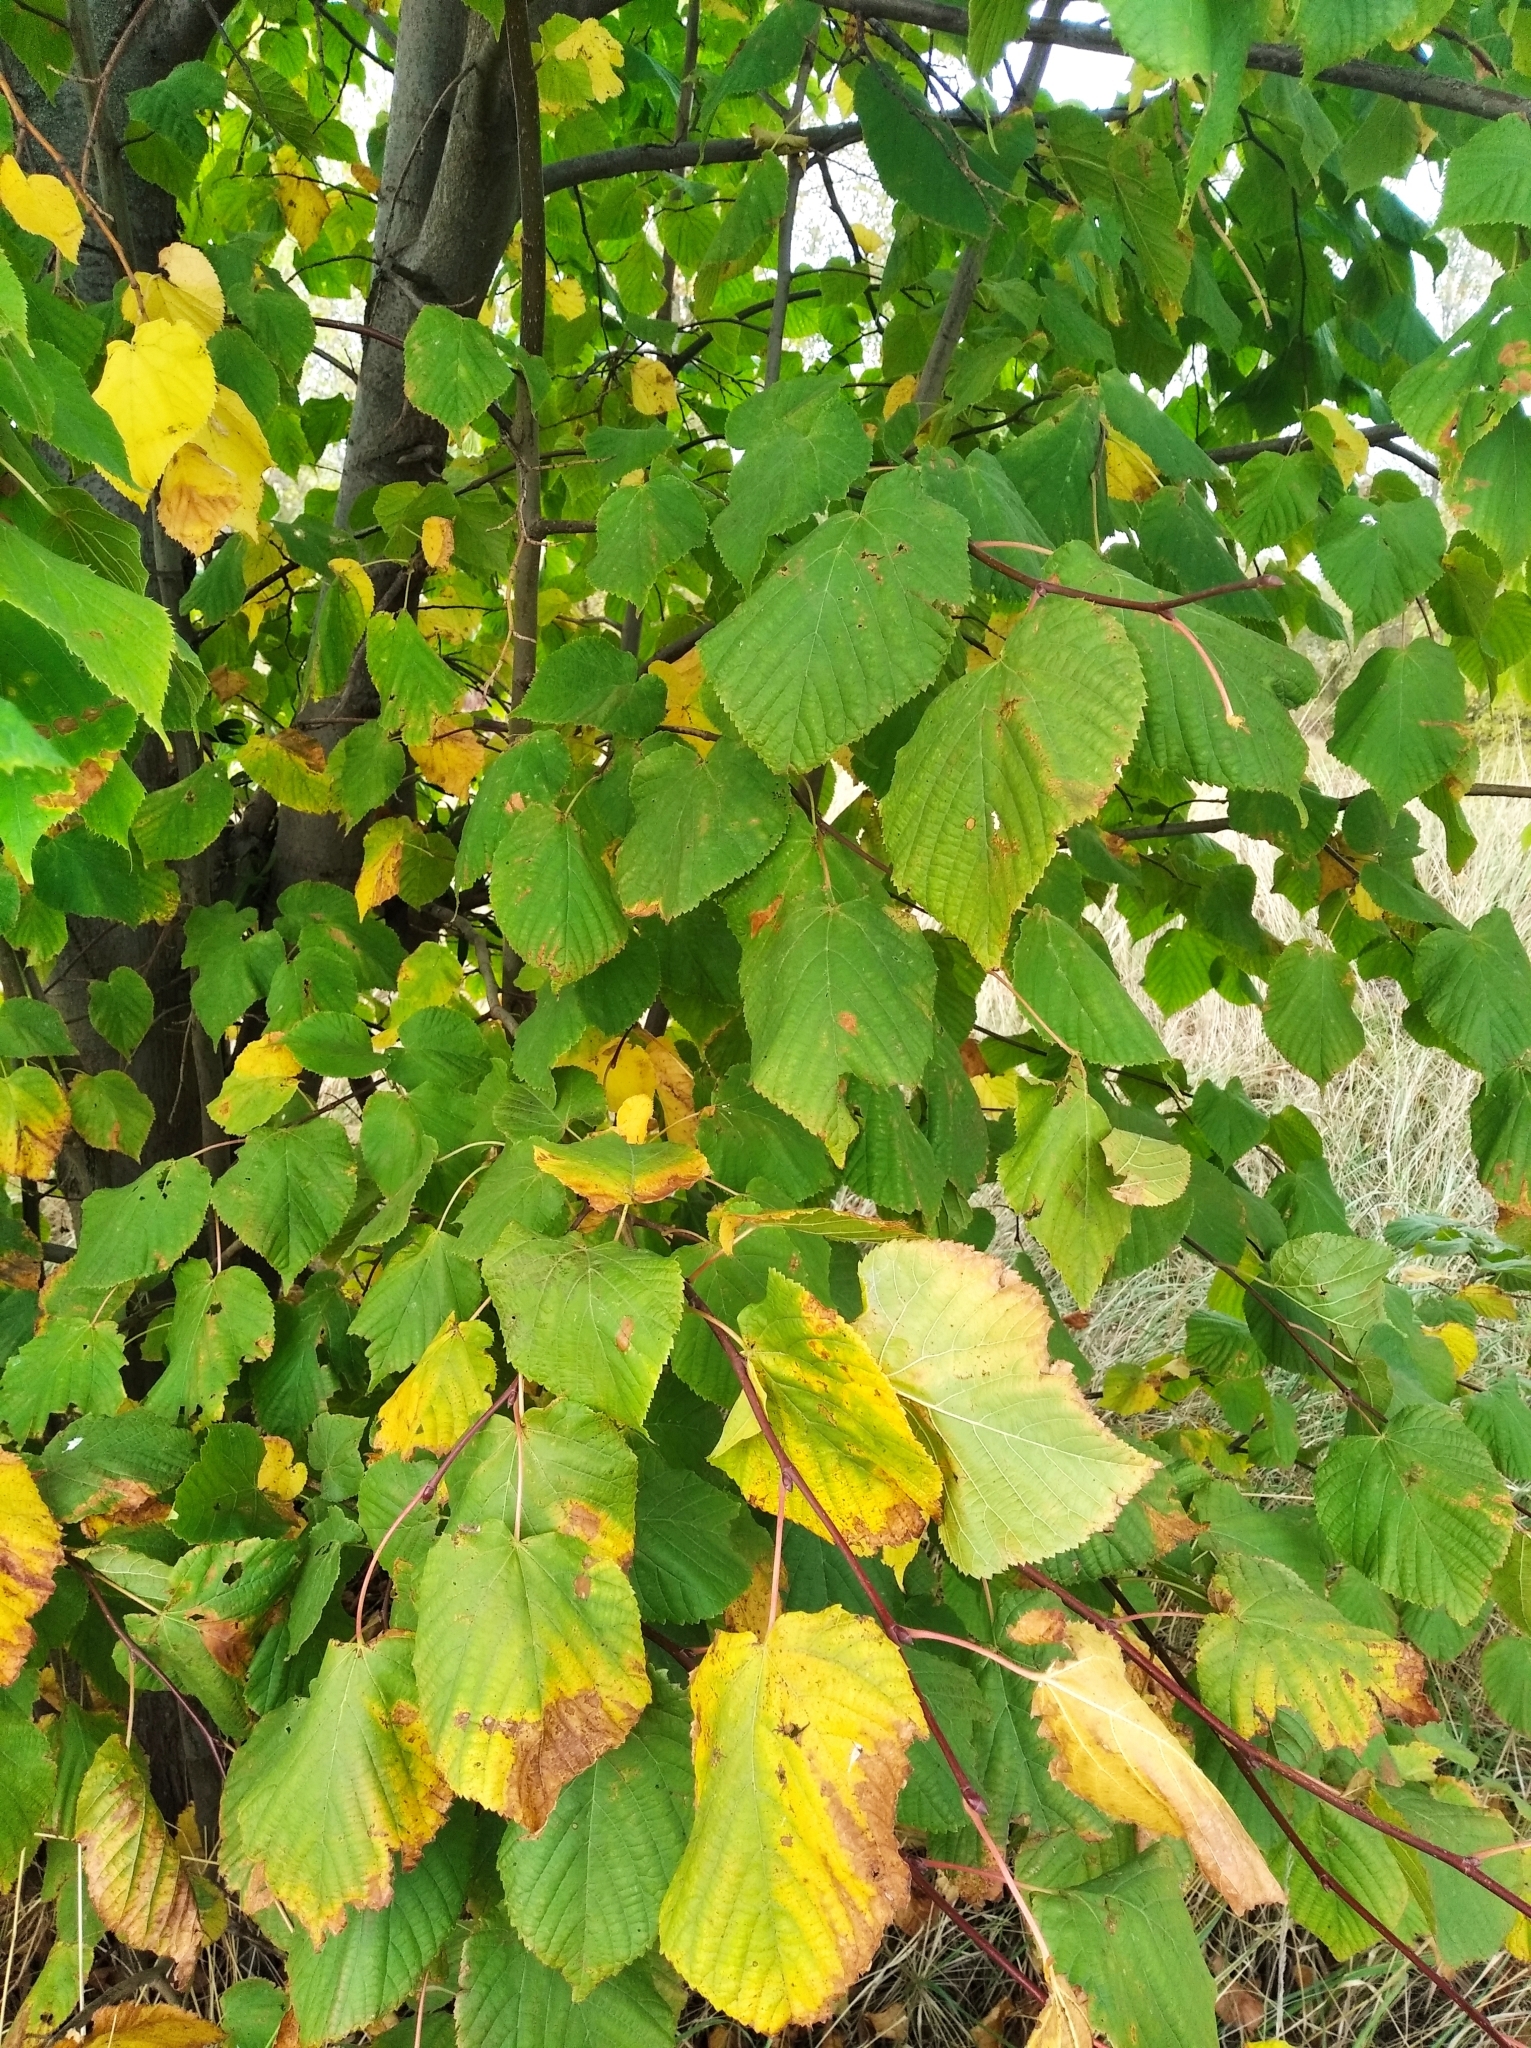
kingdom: Plantae
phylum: Tracheophyta
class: Magnoliopsida
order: Malvales
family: Malvaceae
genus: Tilia
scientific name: Tilia cordata
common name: Small-leaved lime
